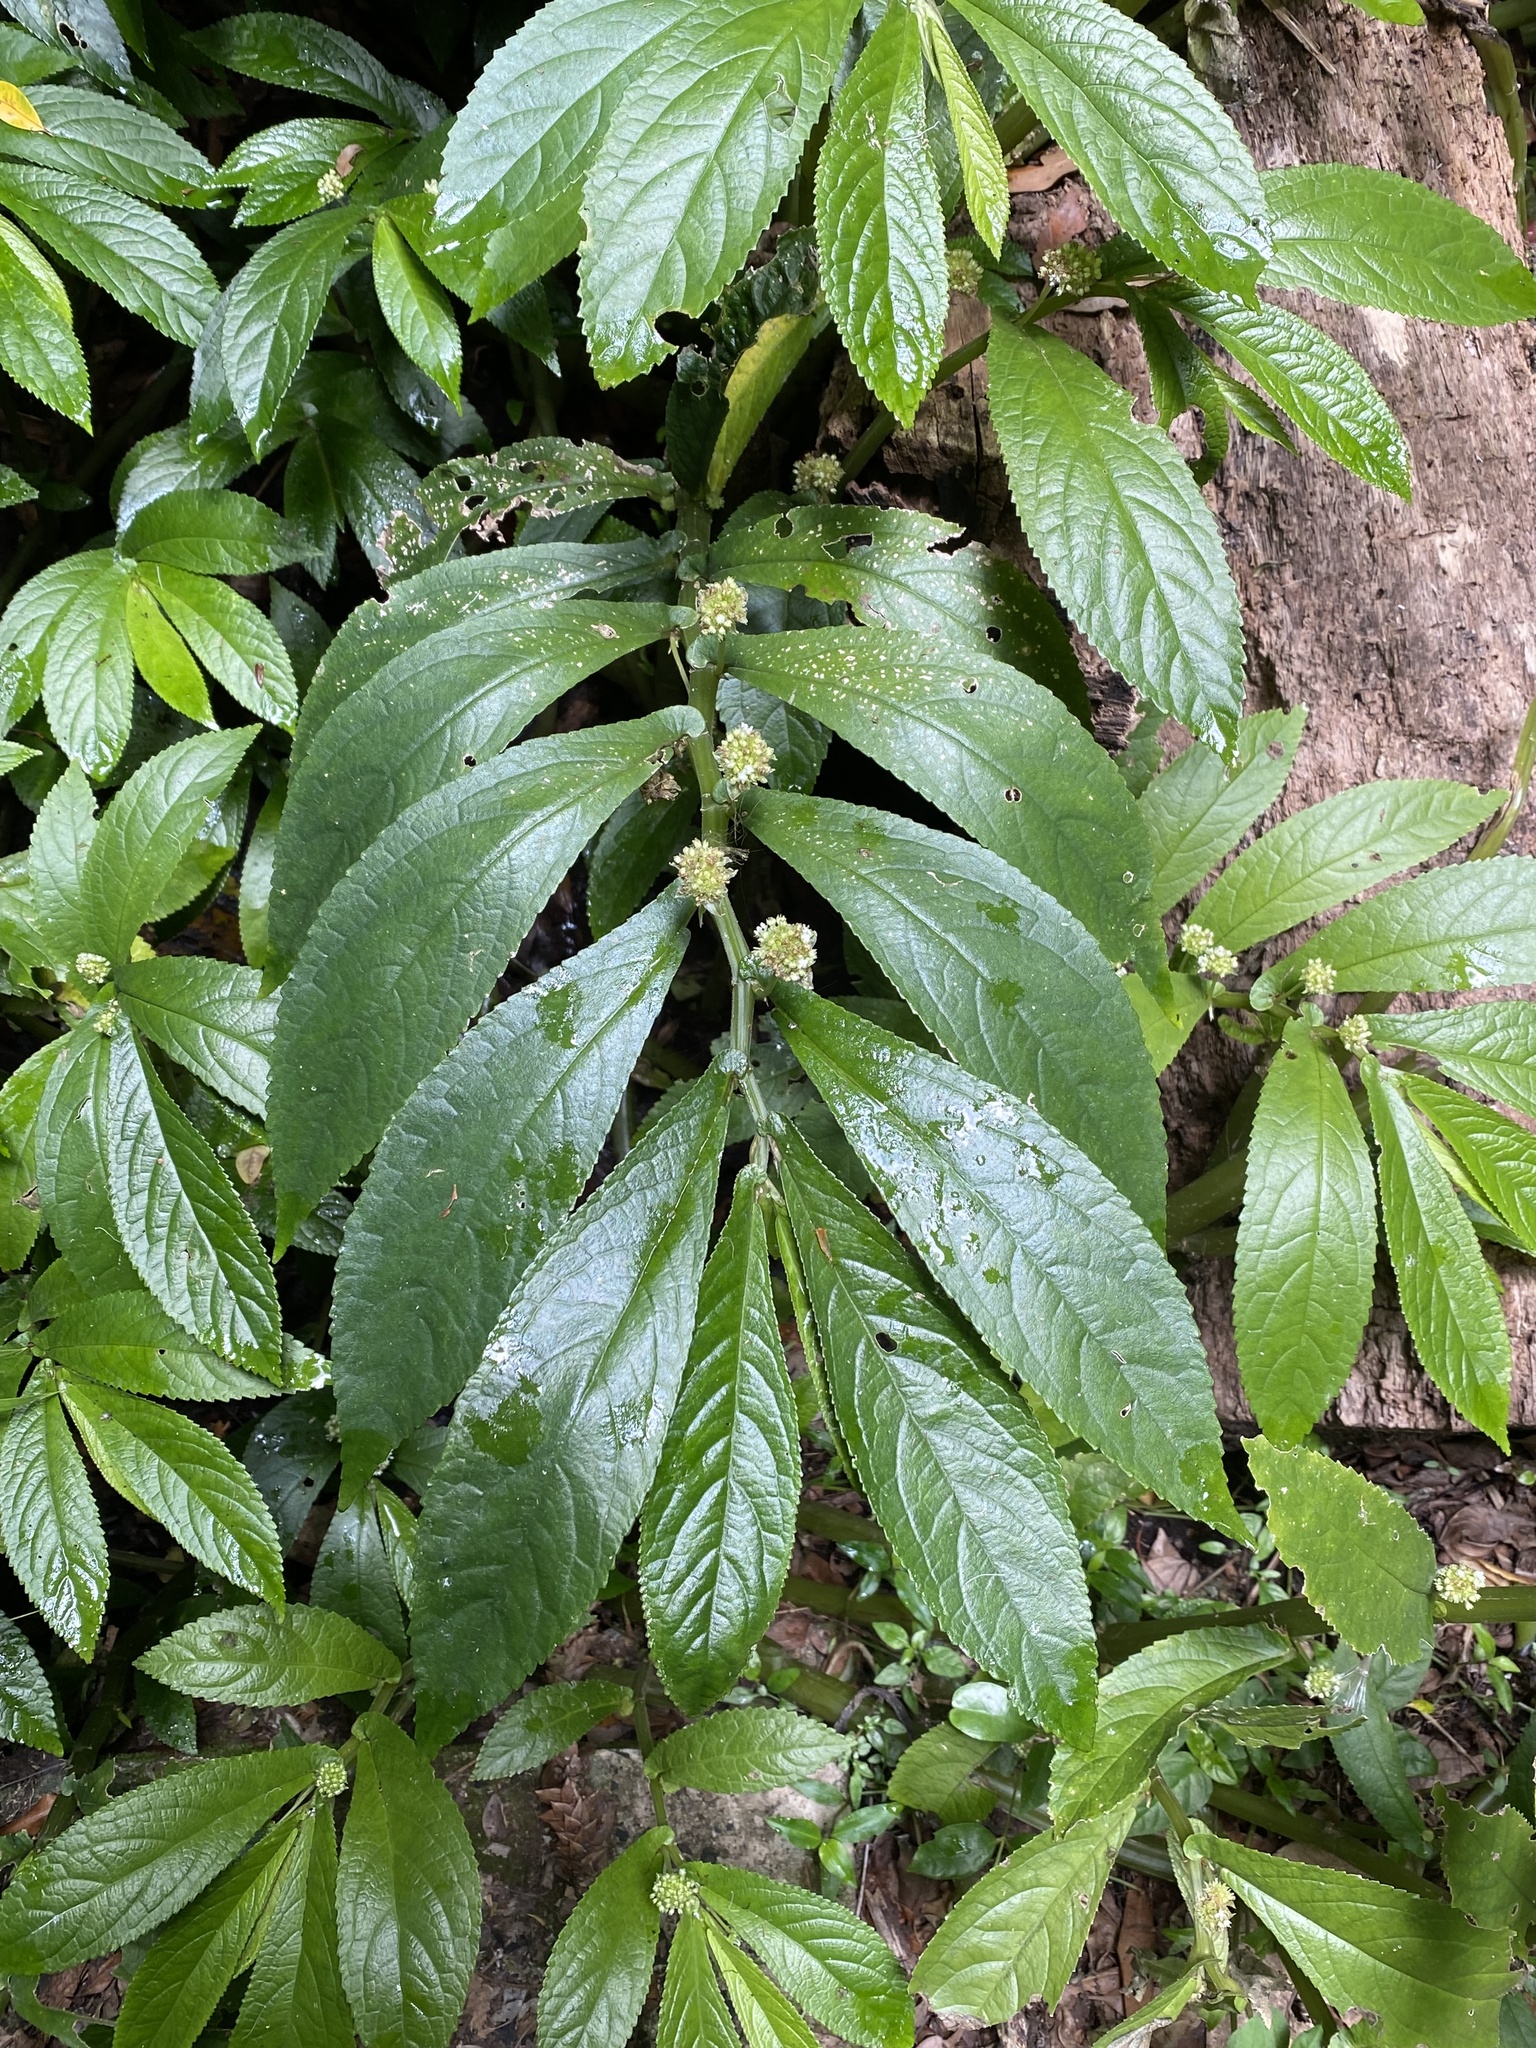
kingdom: Plantae
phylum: Tracheophyta
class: Magnoliopsida
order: Rosales
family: Urticaceae
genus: Elatostema
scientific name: Elatostema reticulatum
